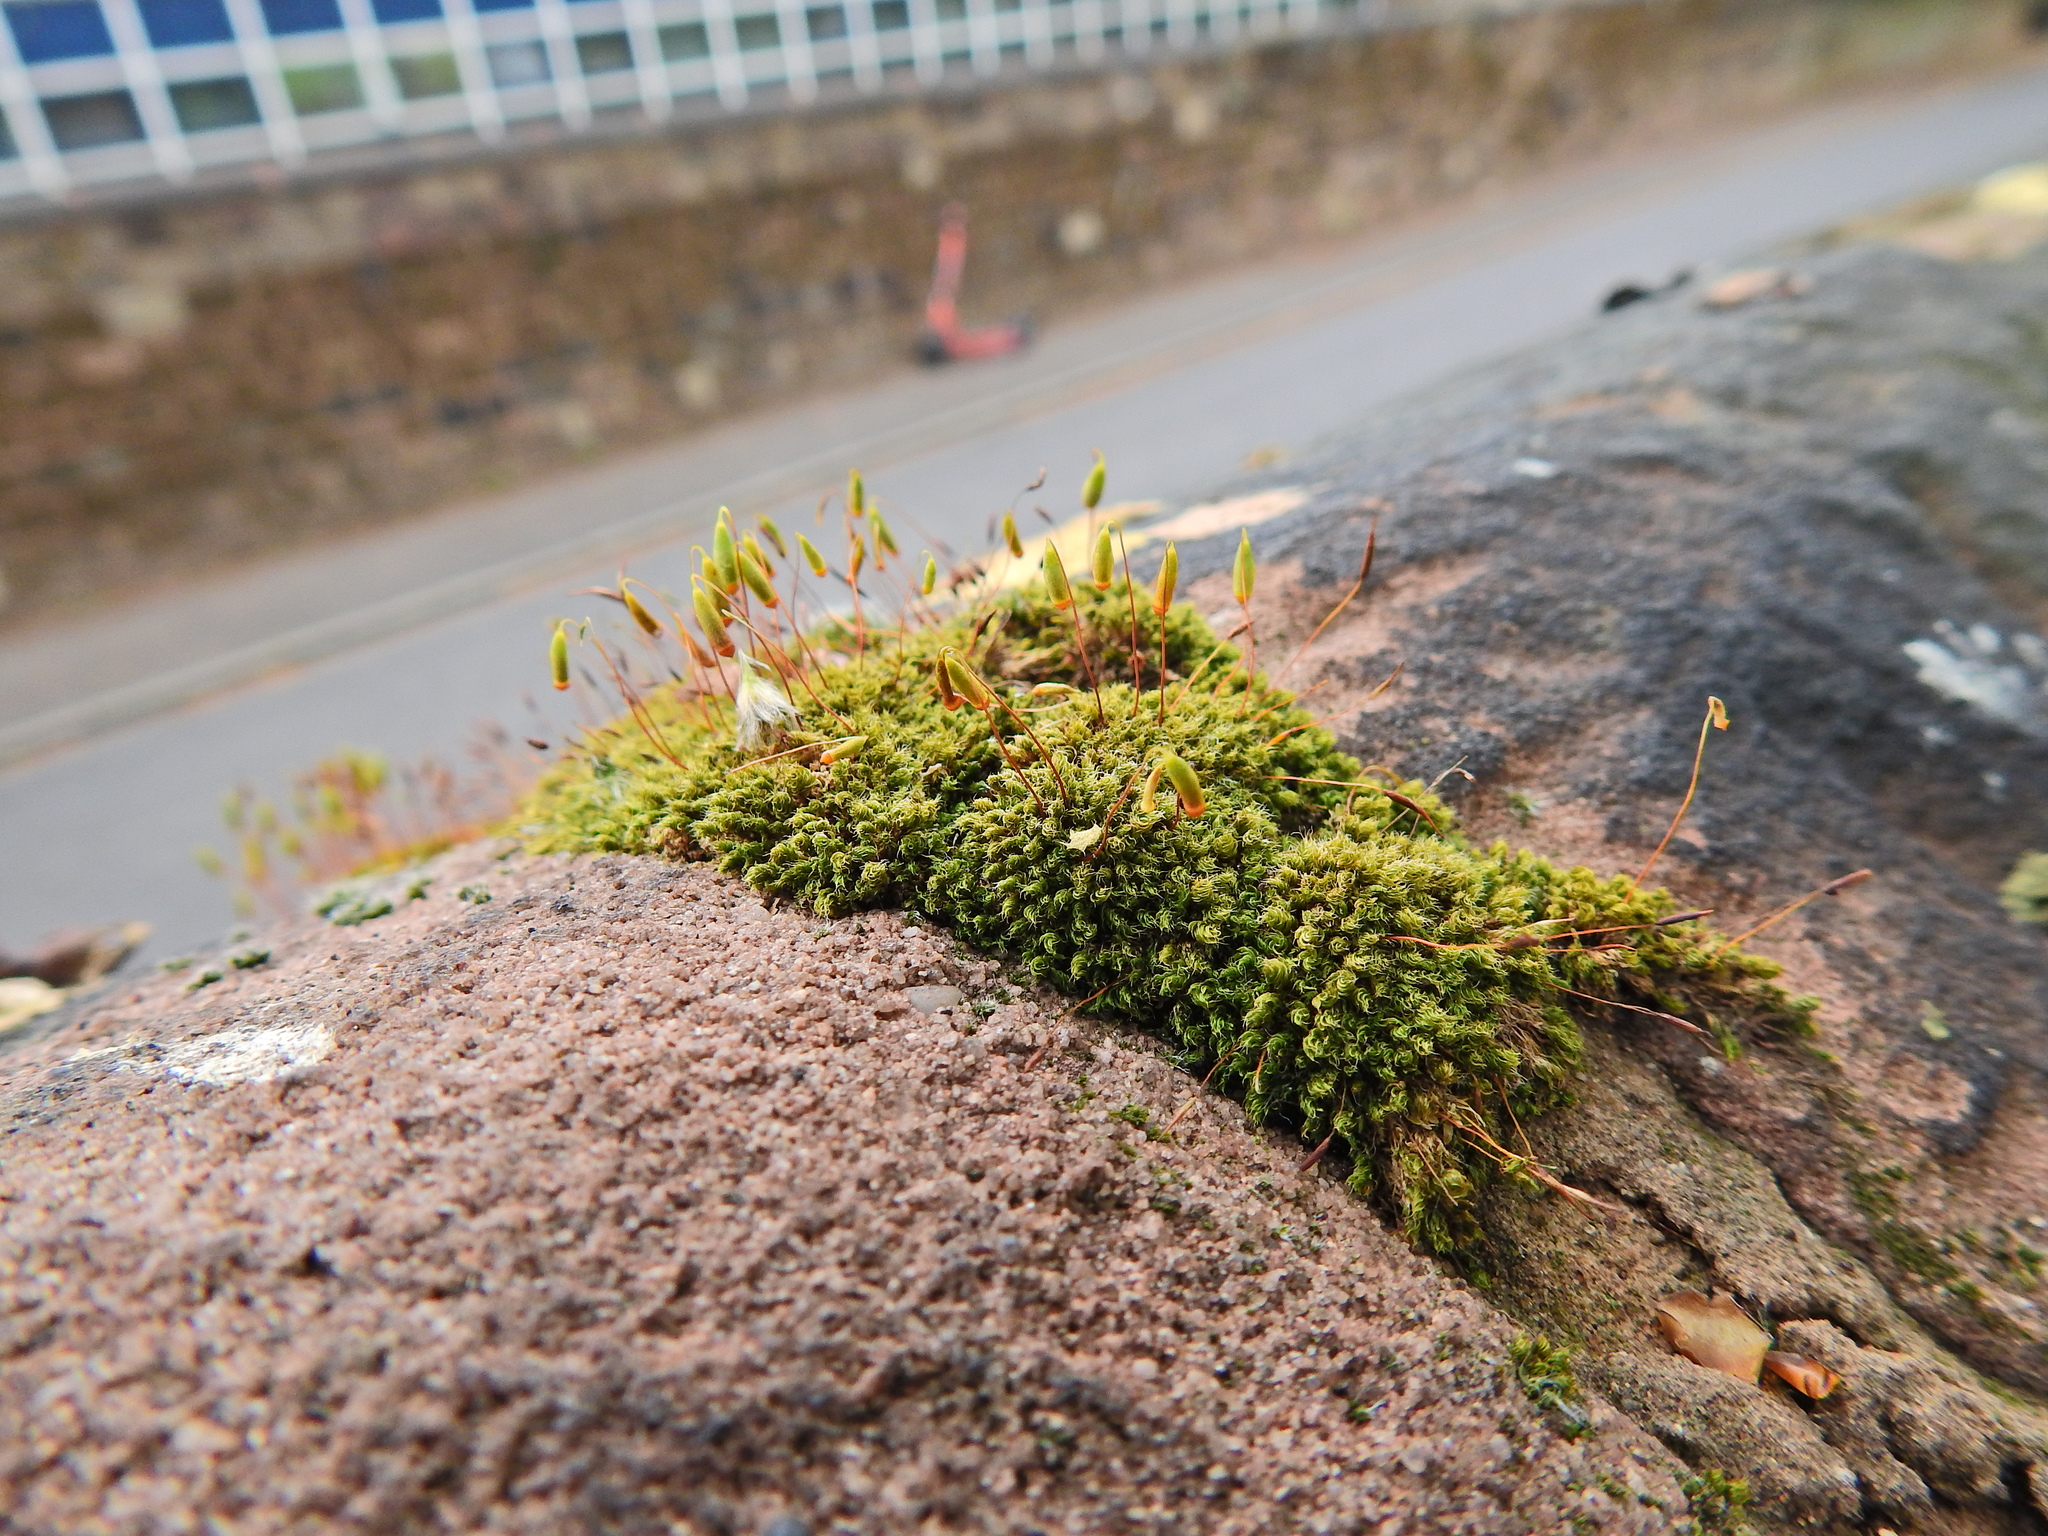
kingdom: Plantae
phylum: Bryophyta
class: Bryopsida
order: Bryales
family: Bryaceae
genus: Rosulabryum
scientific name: Rosulabryum capillare
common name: Capillary thread-moss
